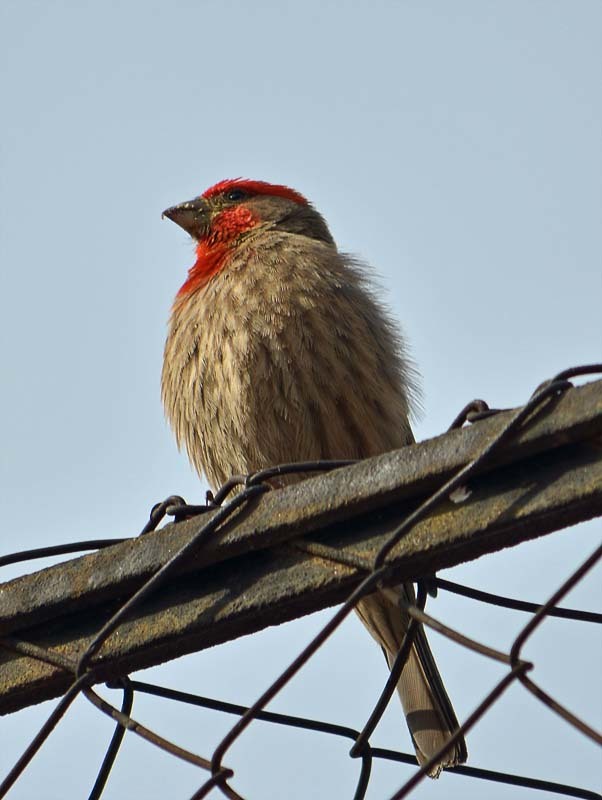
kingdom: Animalia
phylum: Chordata
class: Aves
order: Passeriformes
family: Fringillidae
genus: Haemorhous
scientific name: Haemorhous mexicanus
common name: House finch
